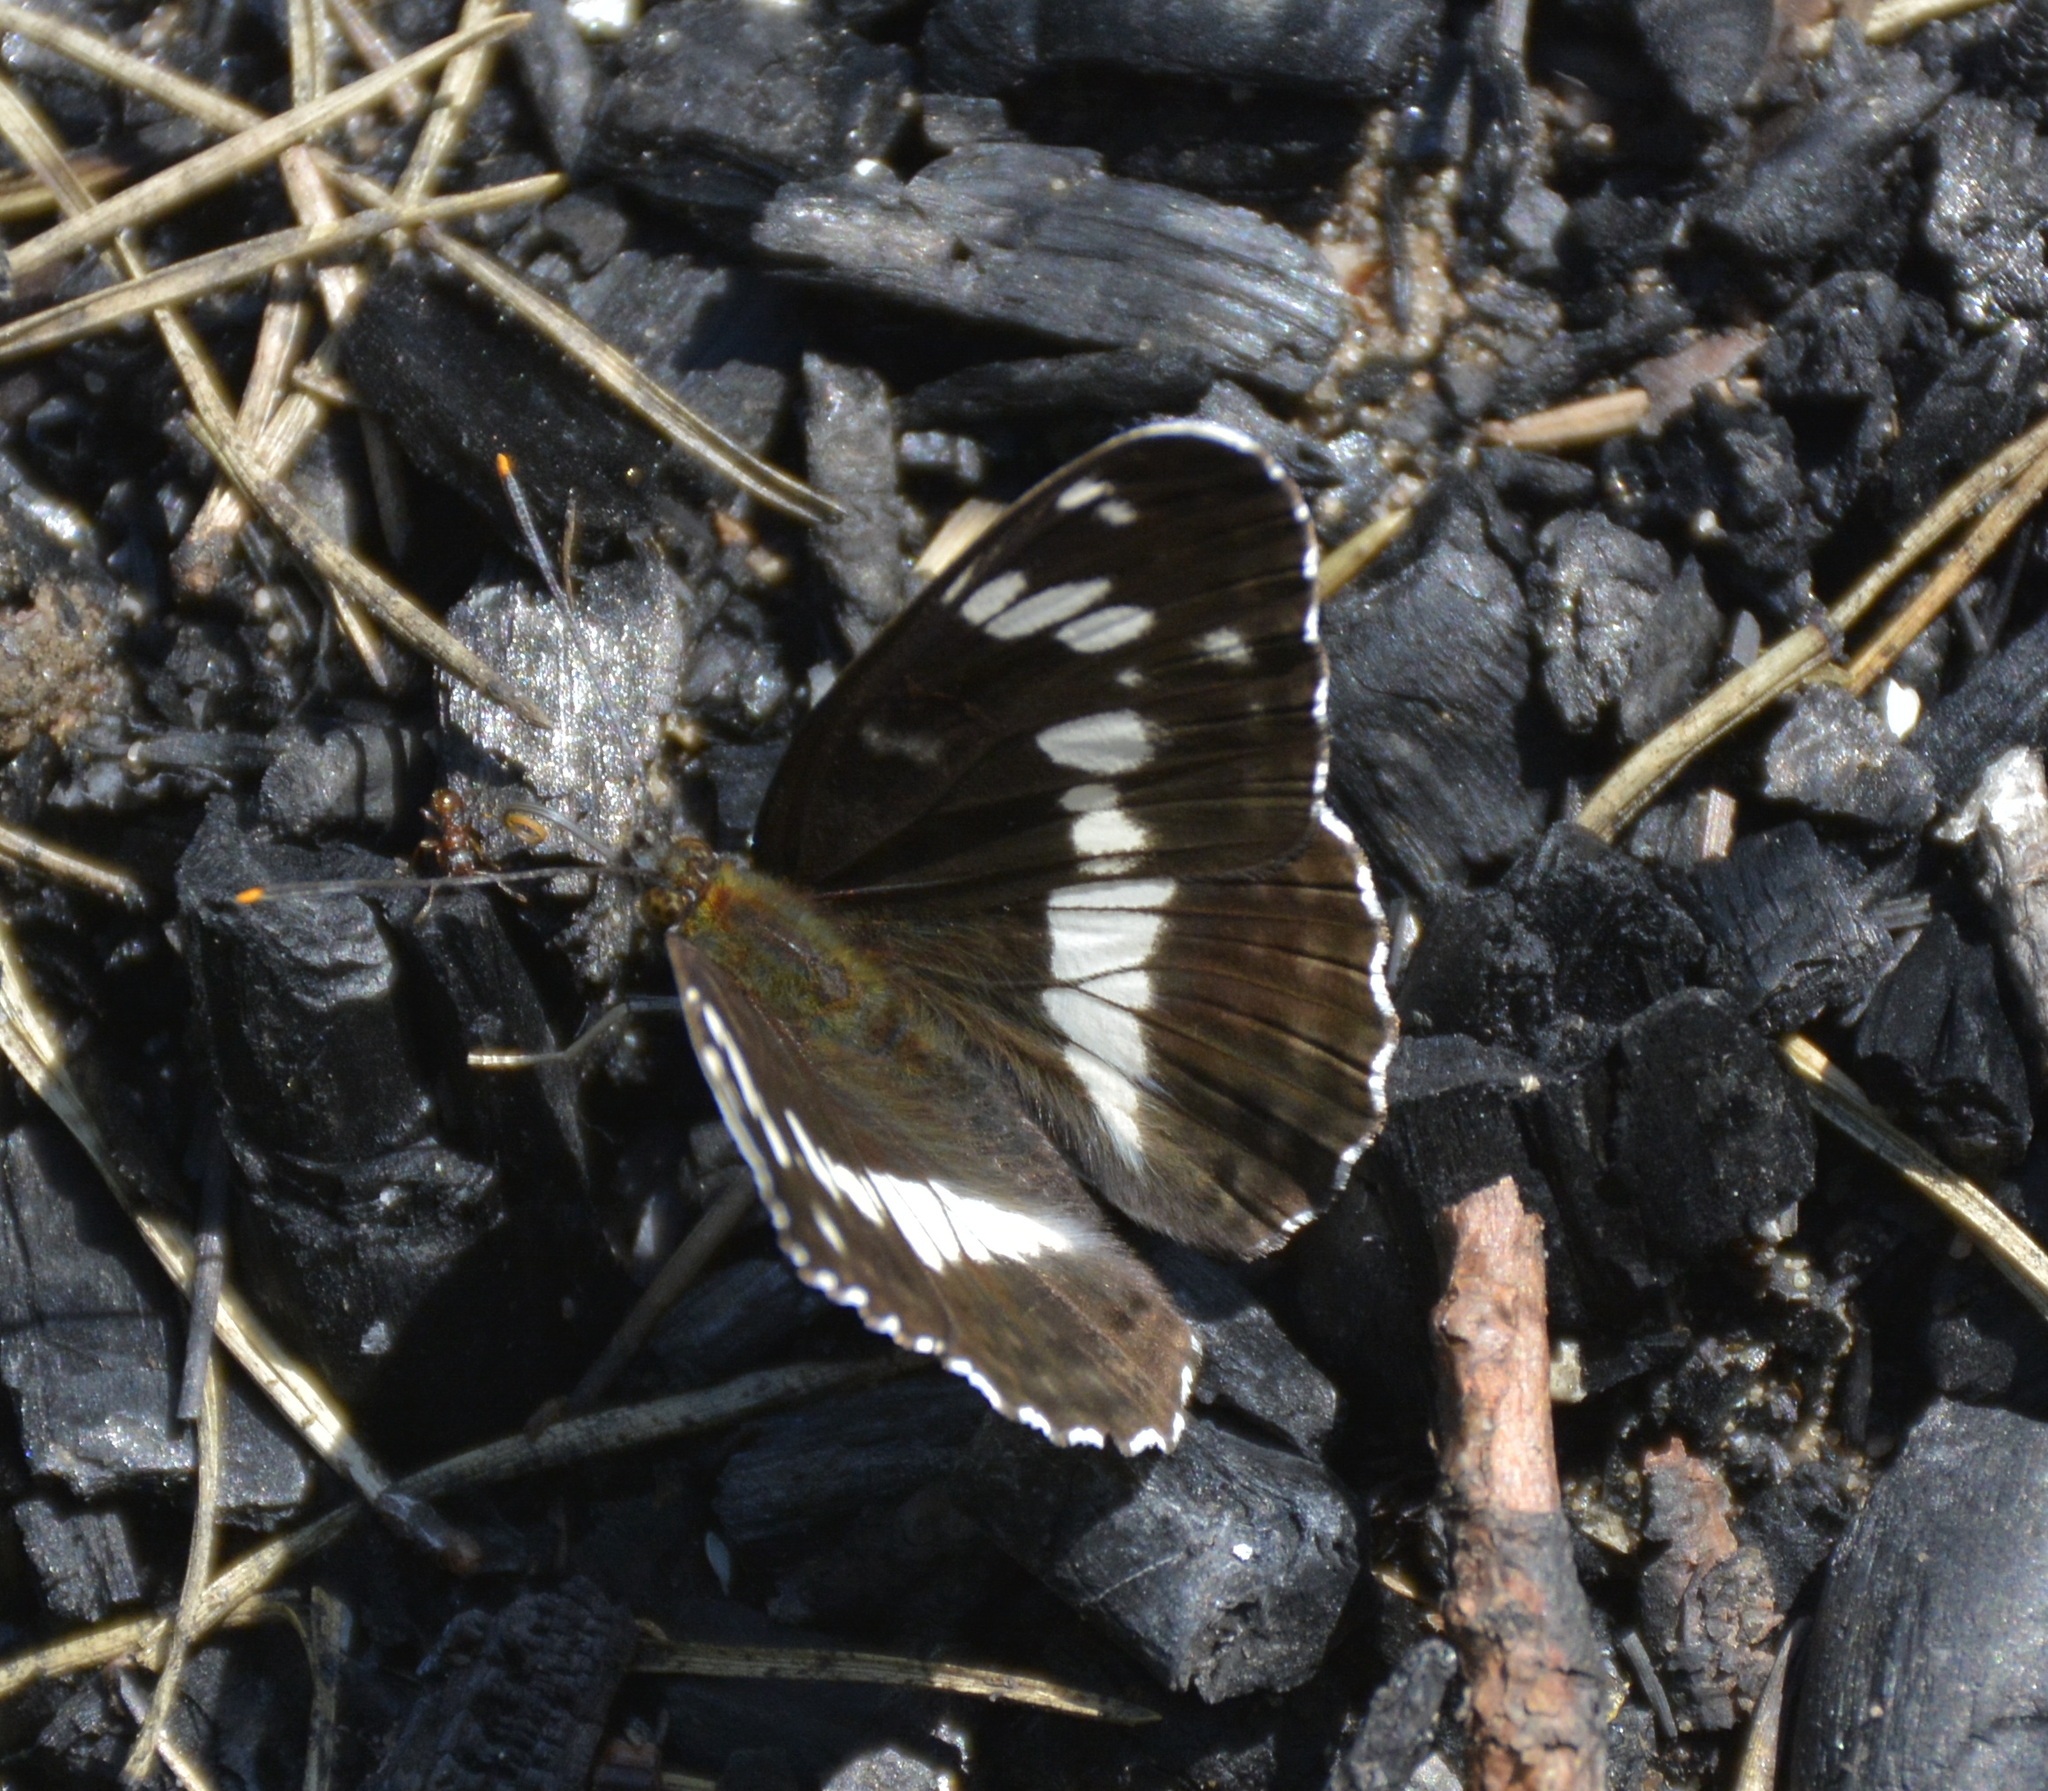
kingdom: Animalia
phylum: Arthropoda
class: Insecta
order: Lepidoptera
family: Nymphalidae
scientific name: Nymphalidae
